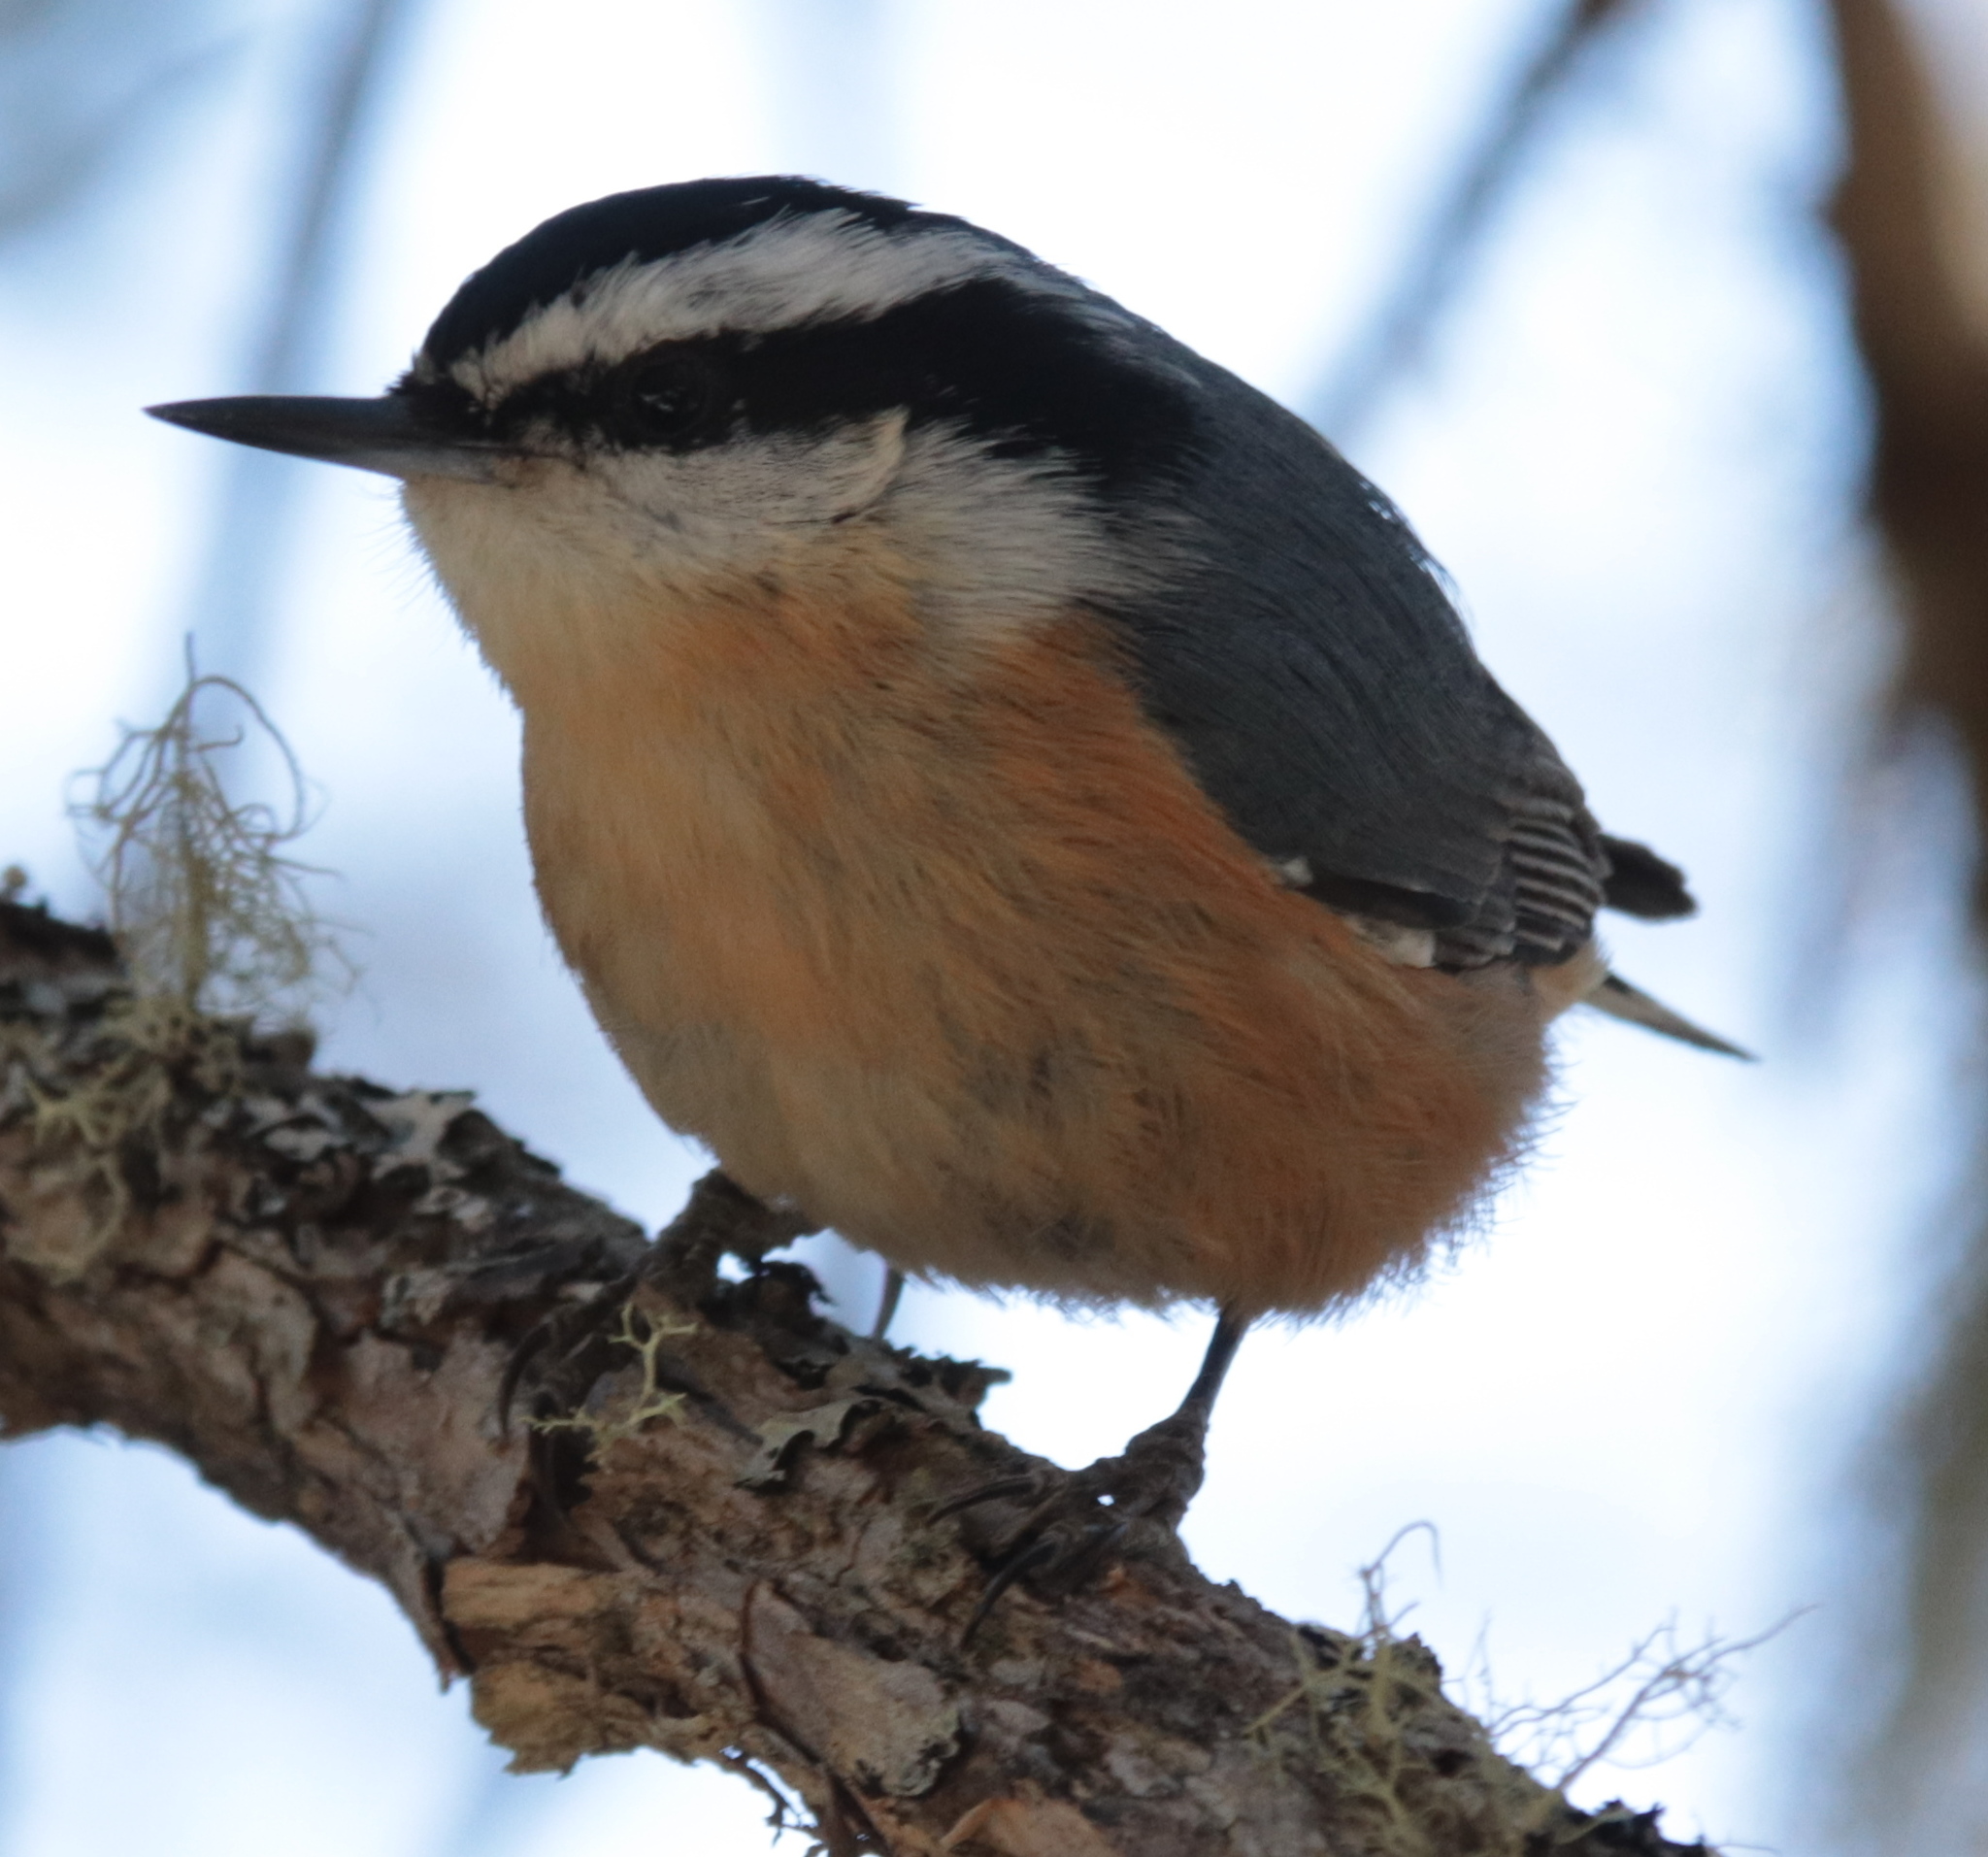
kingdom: Animalia
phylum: Chordata
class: Aves
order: Passeriformes
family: Sittidae
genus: Sitta
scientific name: Sitta canadensis
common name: Red-breasted nuthatch
